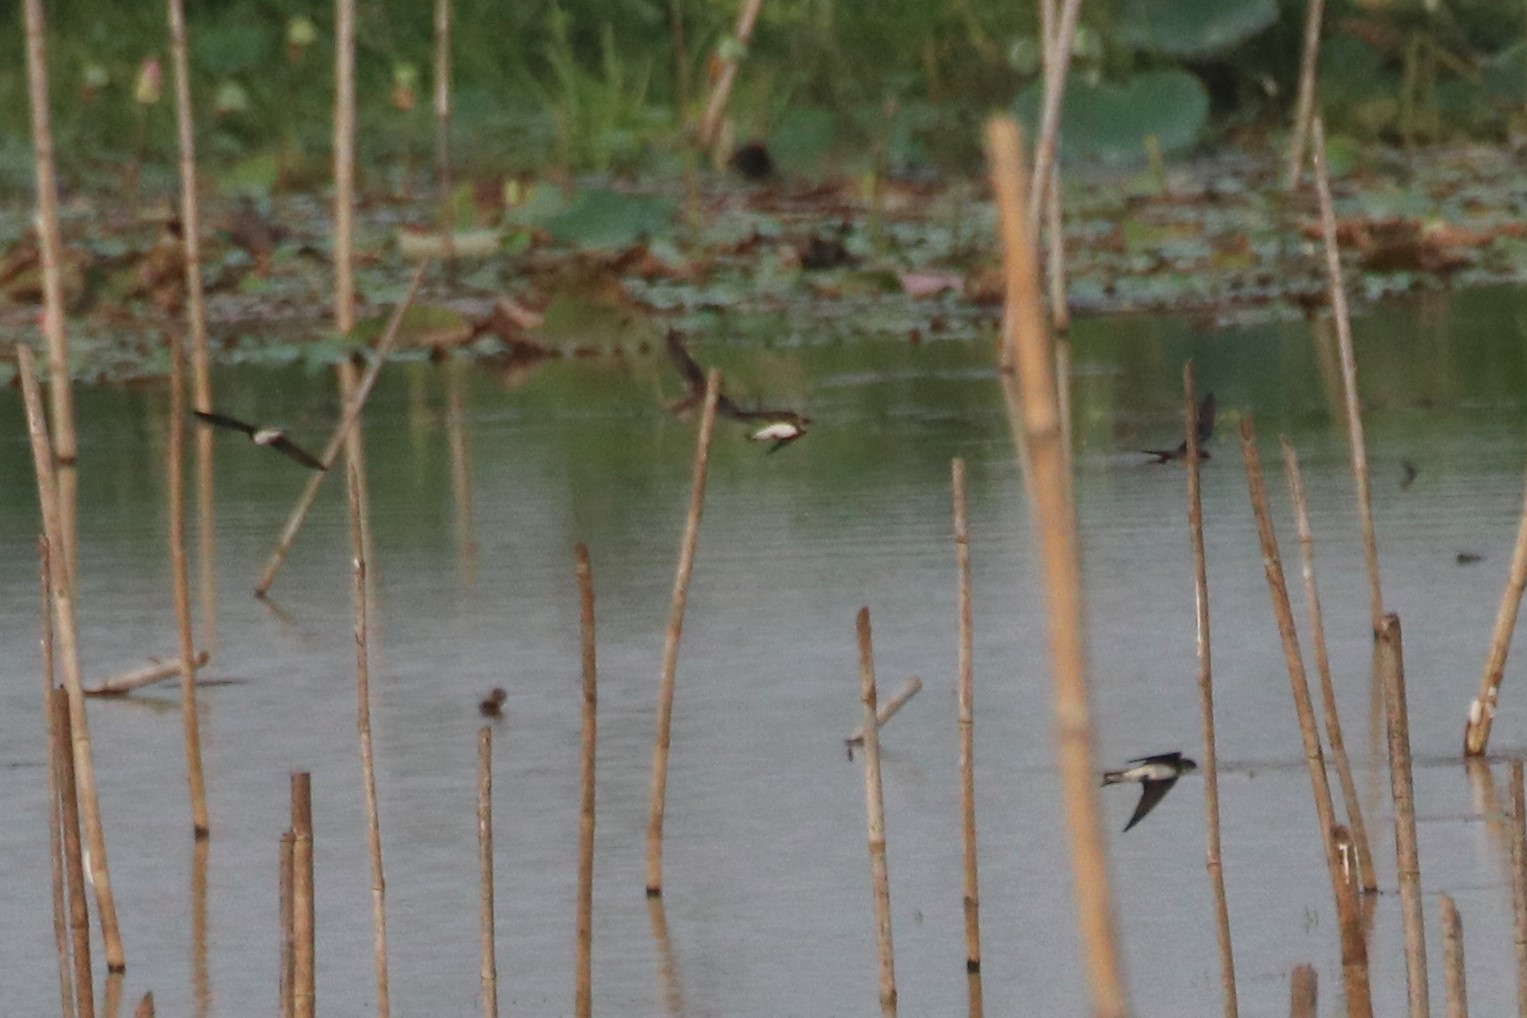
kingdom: Animalia
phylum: Chordata
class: Aves
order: Passeriformes
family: Hirundinidae
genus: Hirundo
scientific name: Hirundo rustica
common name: Barn swallow
